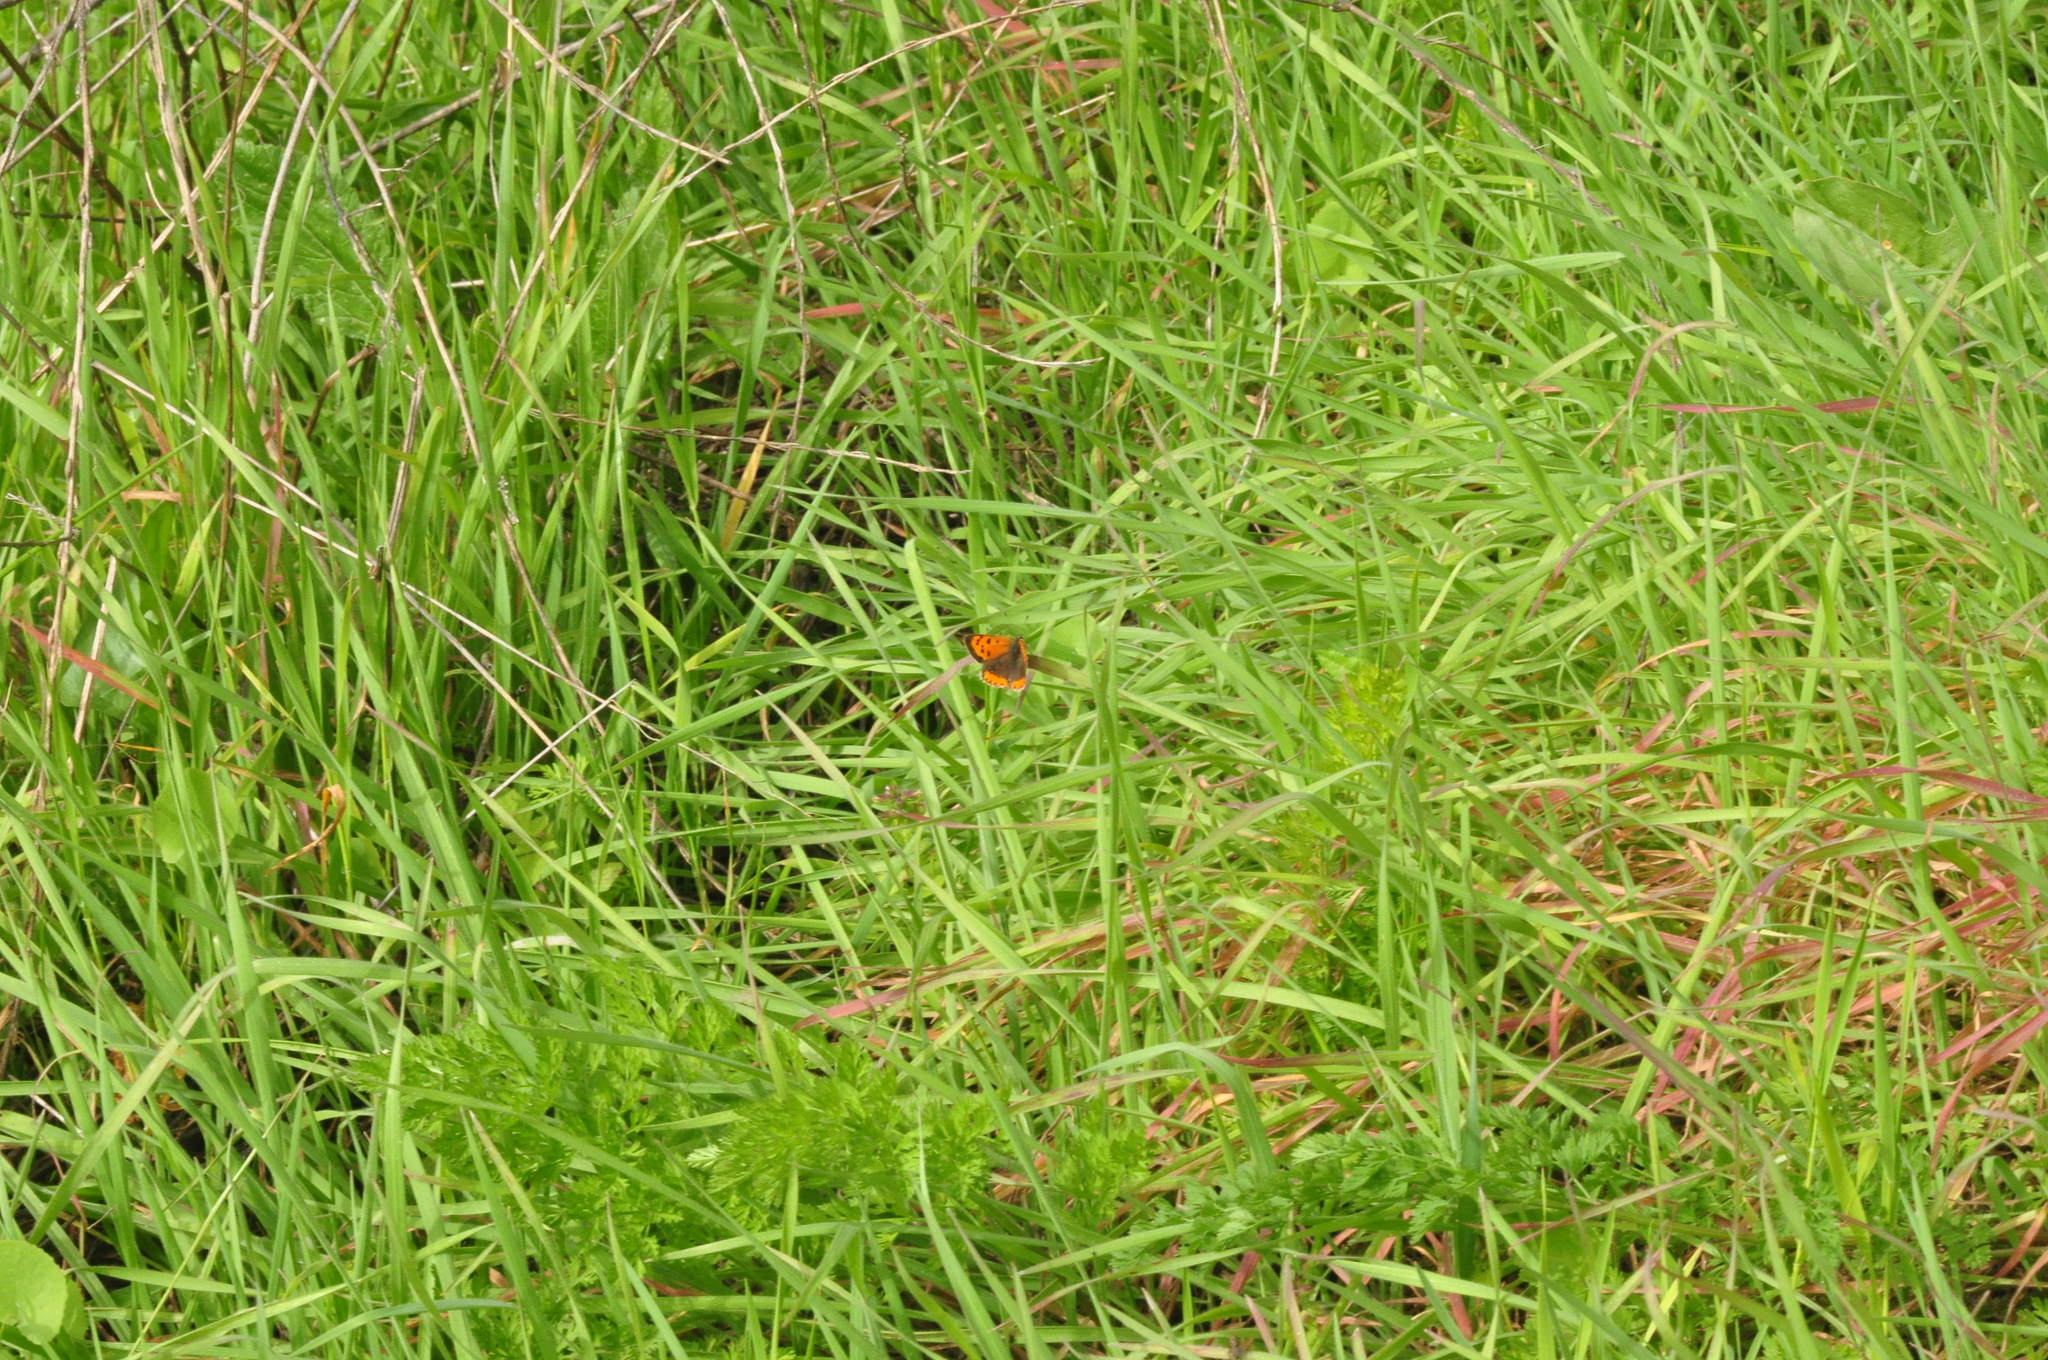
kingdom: Animalia
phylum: Arthropoda
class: Insecta
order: Lepidoptera
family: Lycaenidae
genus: Lycaena
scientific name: Lycaena phlaeas
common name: Small copper
